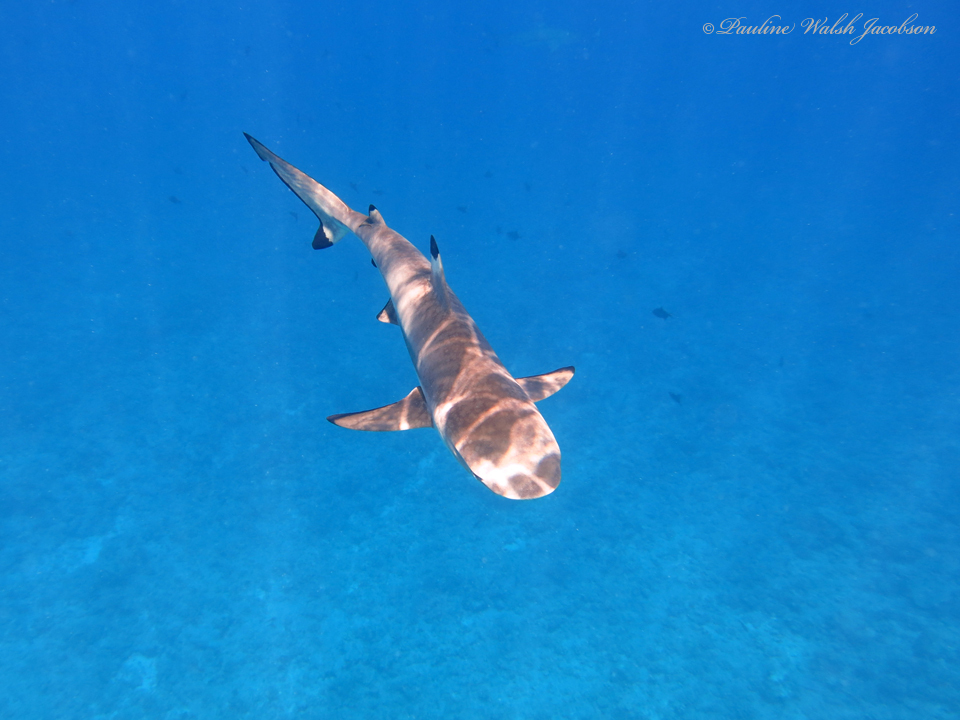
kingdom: Animalia
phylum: Chordata
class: Elasmobranchii
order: Carcharhiniformes
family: Carcharhinidae
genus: Carcharhinus
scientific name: Carcharhinus melanopterus
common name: Blacktip reef shark
